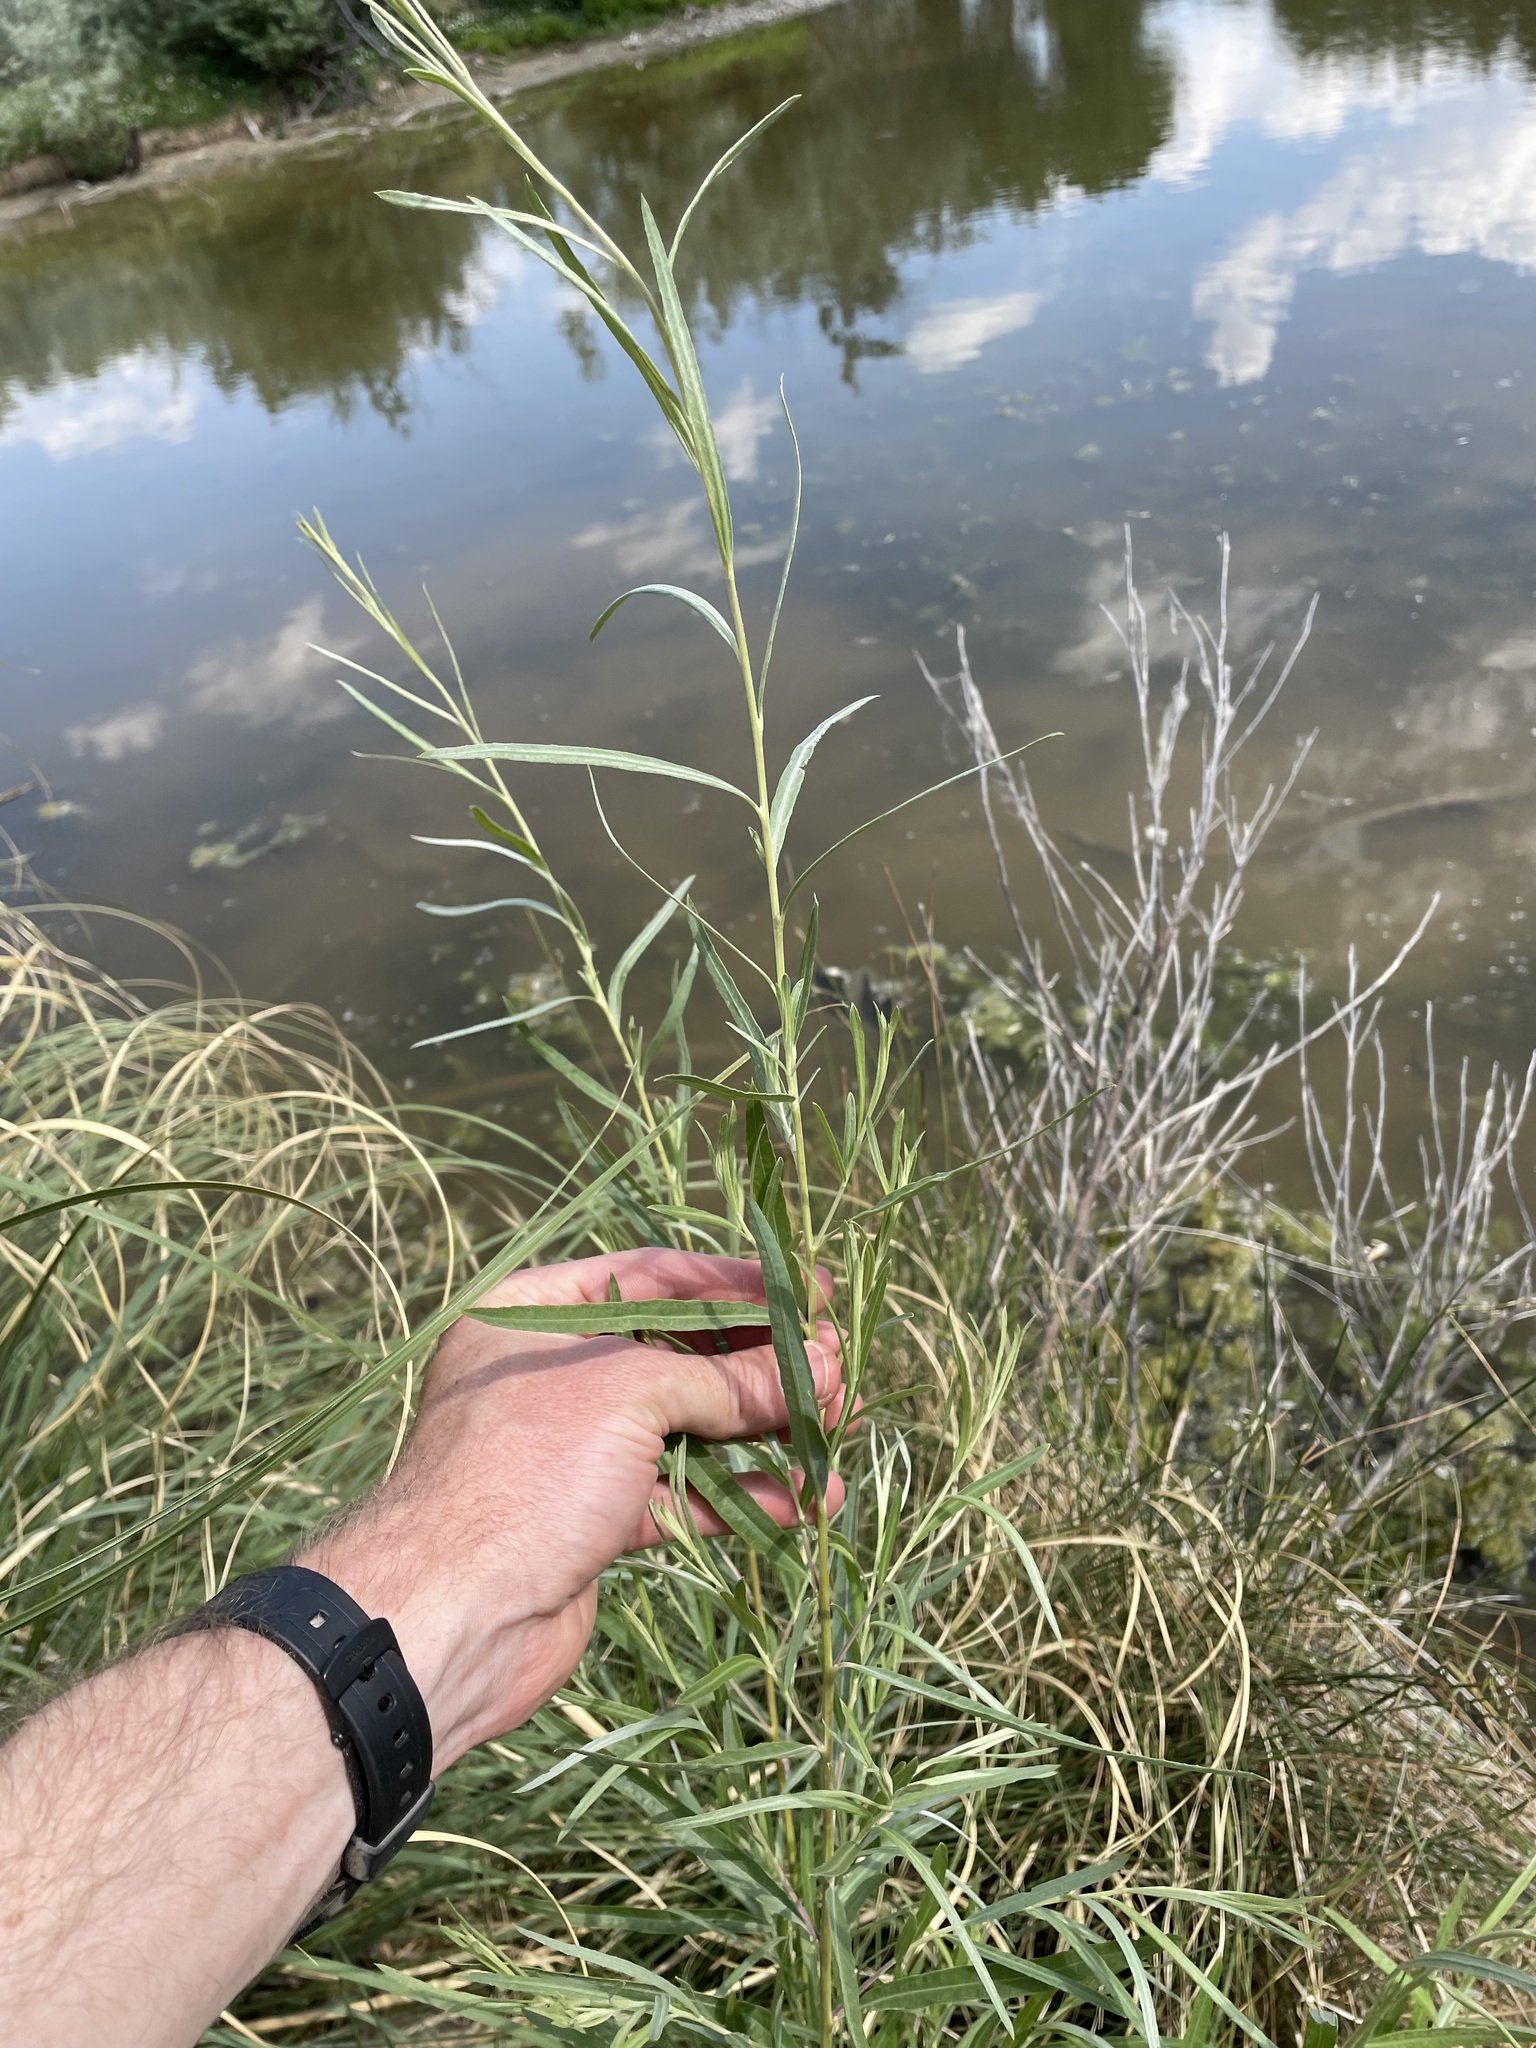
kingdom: Plantae
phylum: Tracheophyta
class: Magnoliopsida
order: Malpighiales
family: Salicaceae
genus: Salix
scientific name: Salix exigua
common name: Coyote willow
